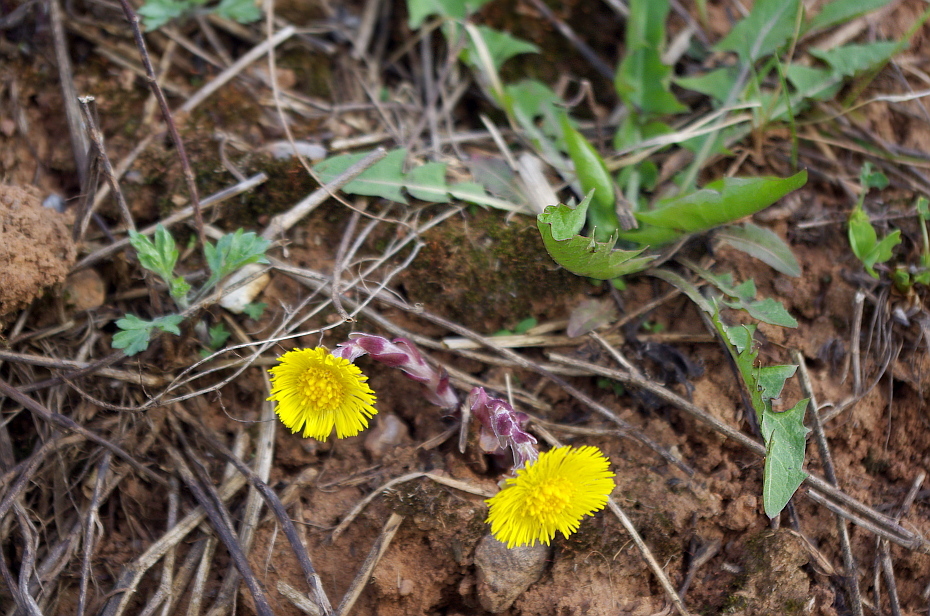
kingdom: Plantae
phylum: Tracheophyta
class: Magnoliopsida
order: Asterales
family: Asteraceae
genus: Tussilago
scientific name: Tussilago farfara
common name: Coltsfoot
